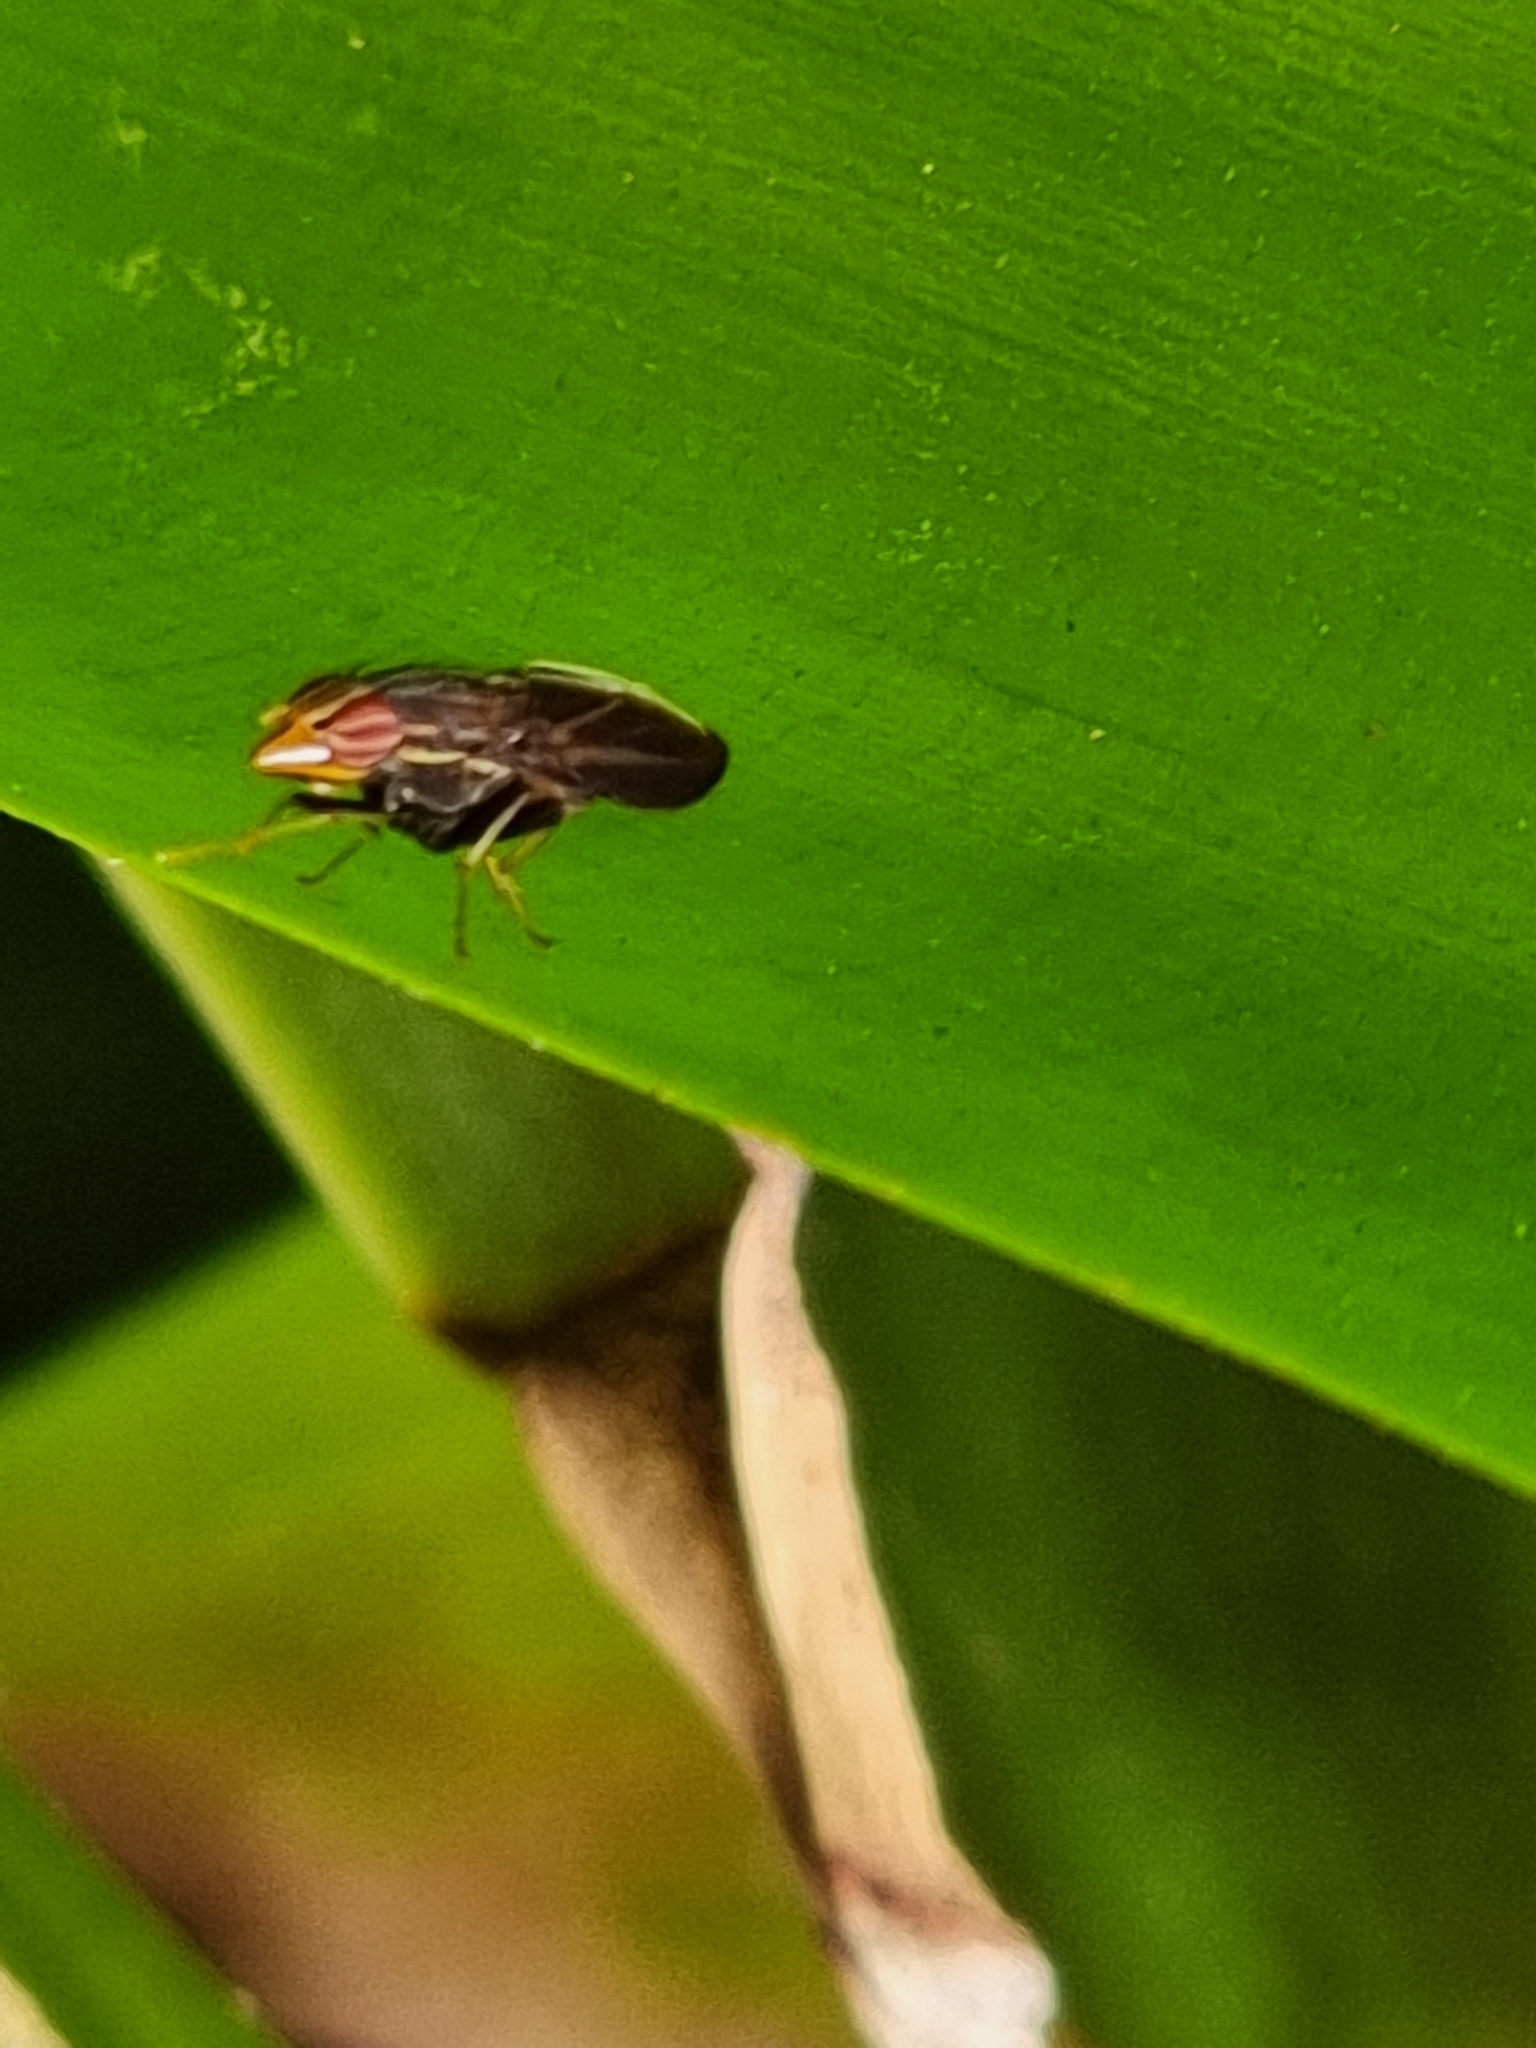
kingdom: Animalia
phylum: Arthropoda
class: Insecta
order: Diptera
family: Lauxaniidae
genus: Cephaloconus
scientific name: Cephaloconus tenebrosus
